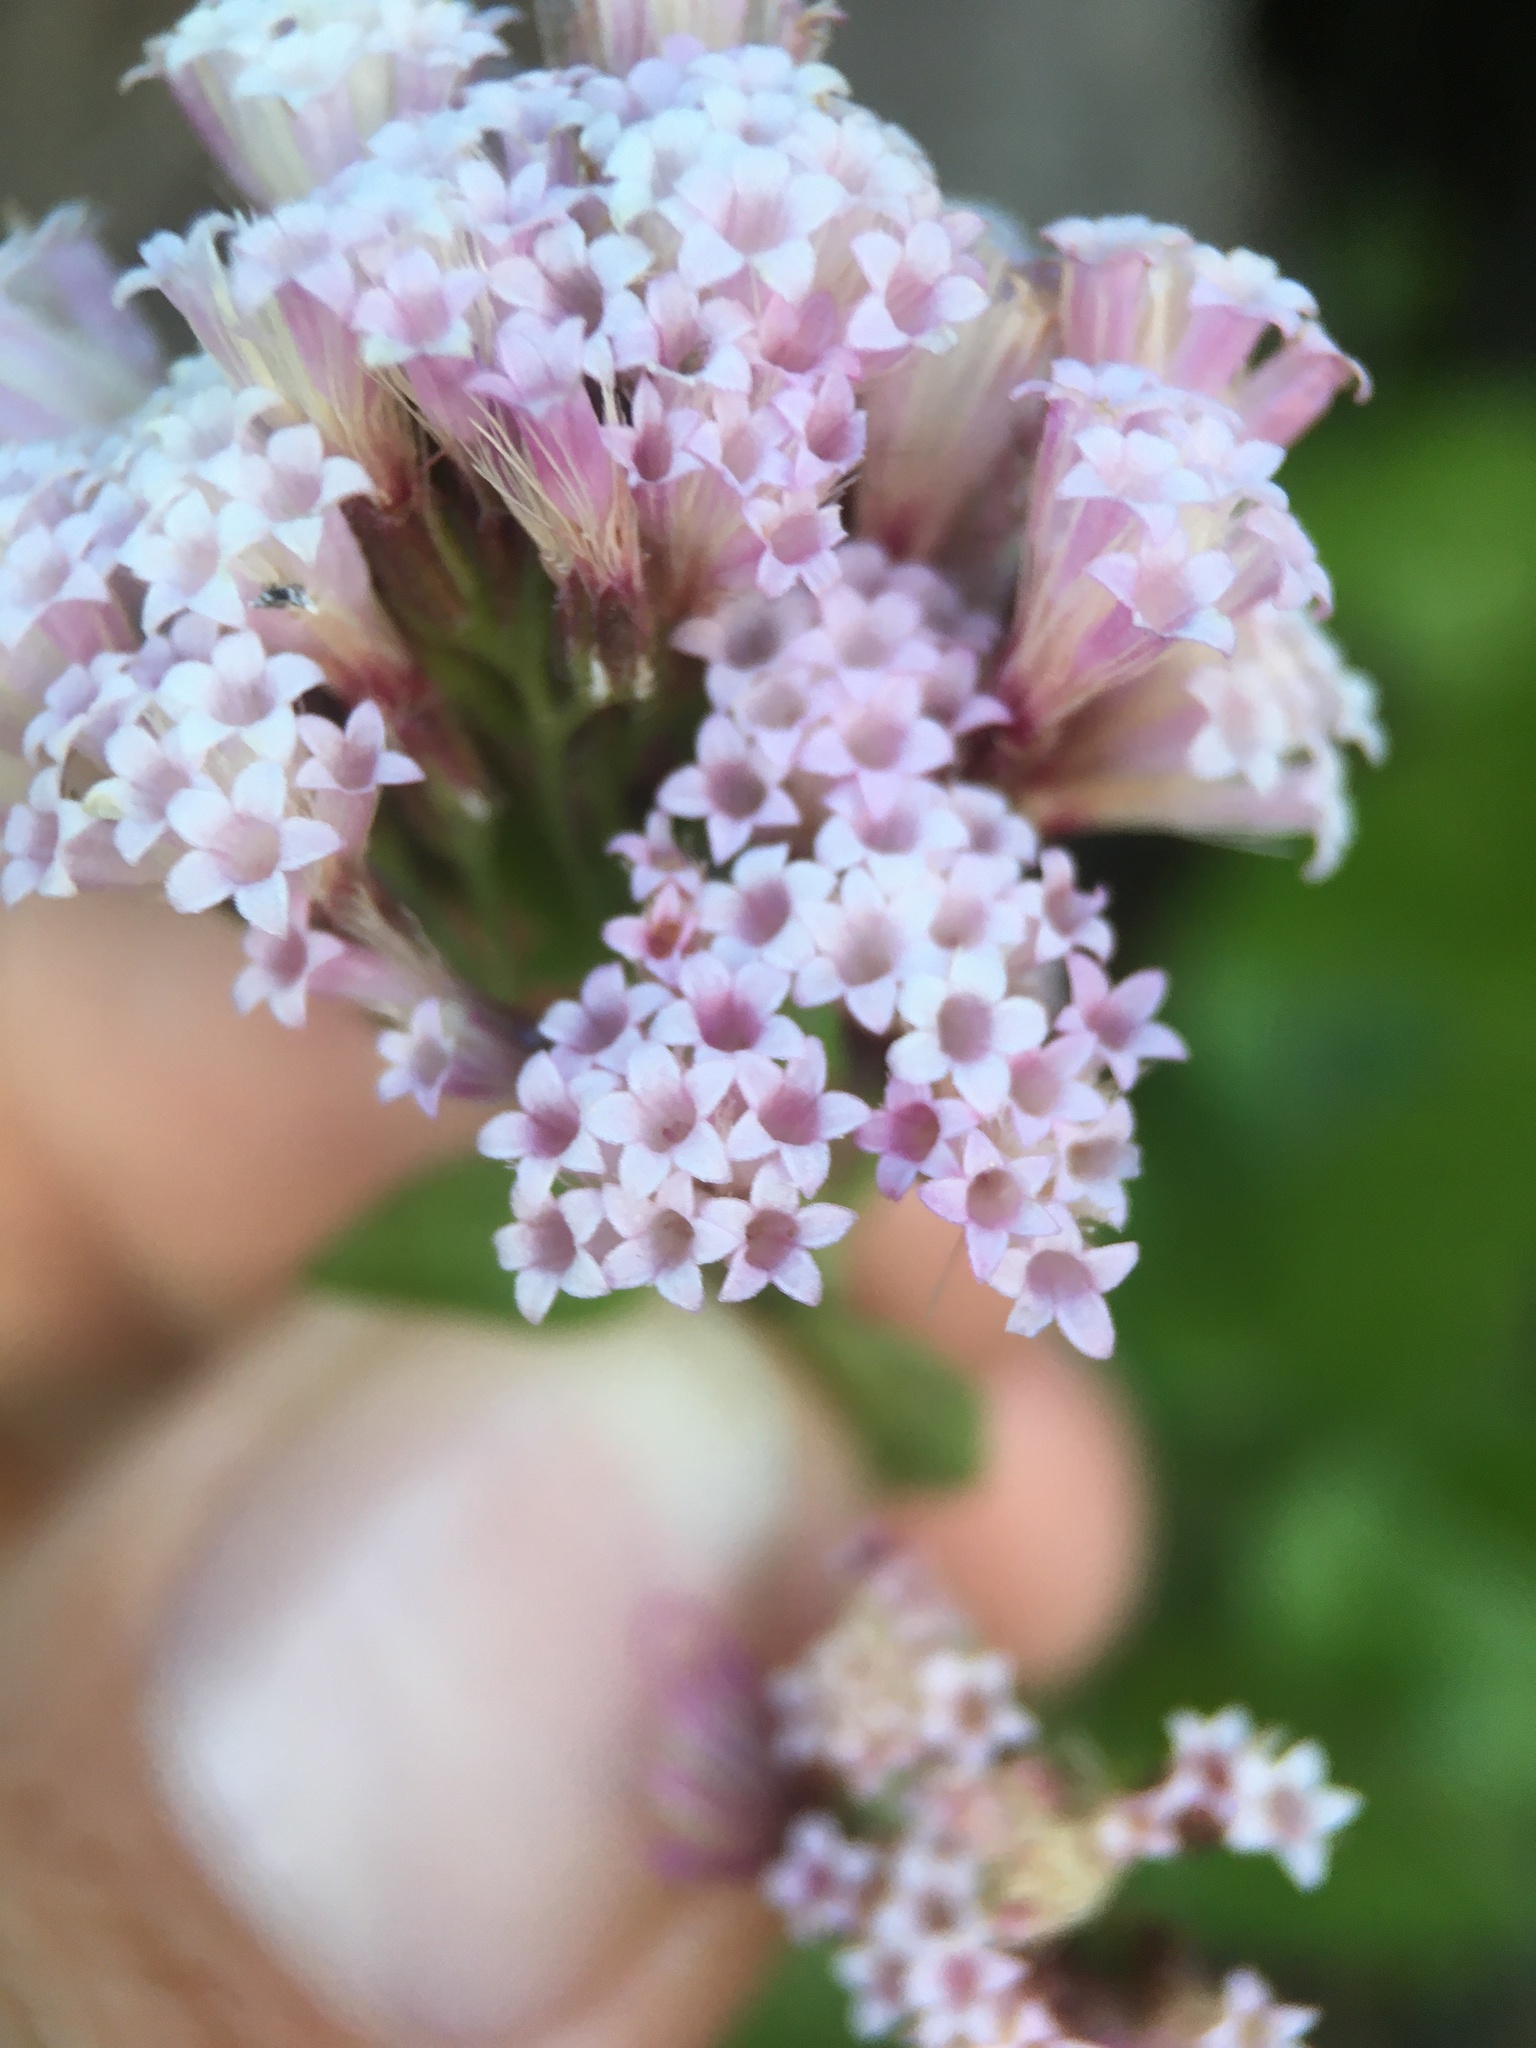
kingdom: Plantae
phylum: Tracheophyta
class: Magnoliopsida
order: Asterales
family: Asteraceae
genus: Ageratina
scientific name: Ageratina occidentalis
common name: Western snakeroot
